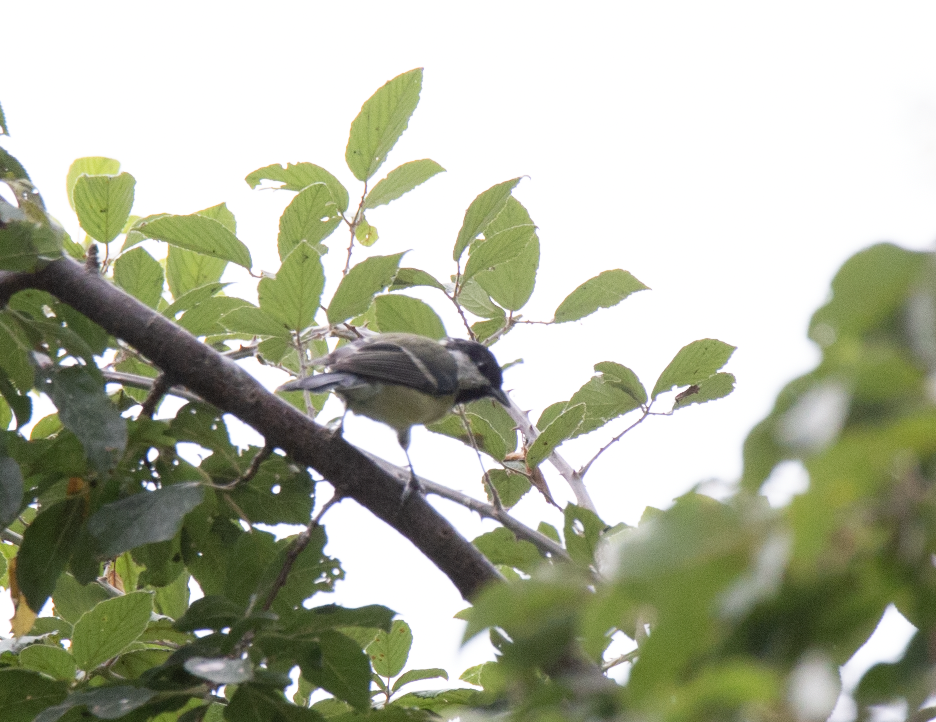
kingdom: Animalia
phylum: Chordata
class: Aves
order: Passeriformes
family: Paridae
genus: Parus
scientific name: Parus major
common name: Great tit
